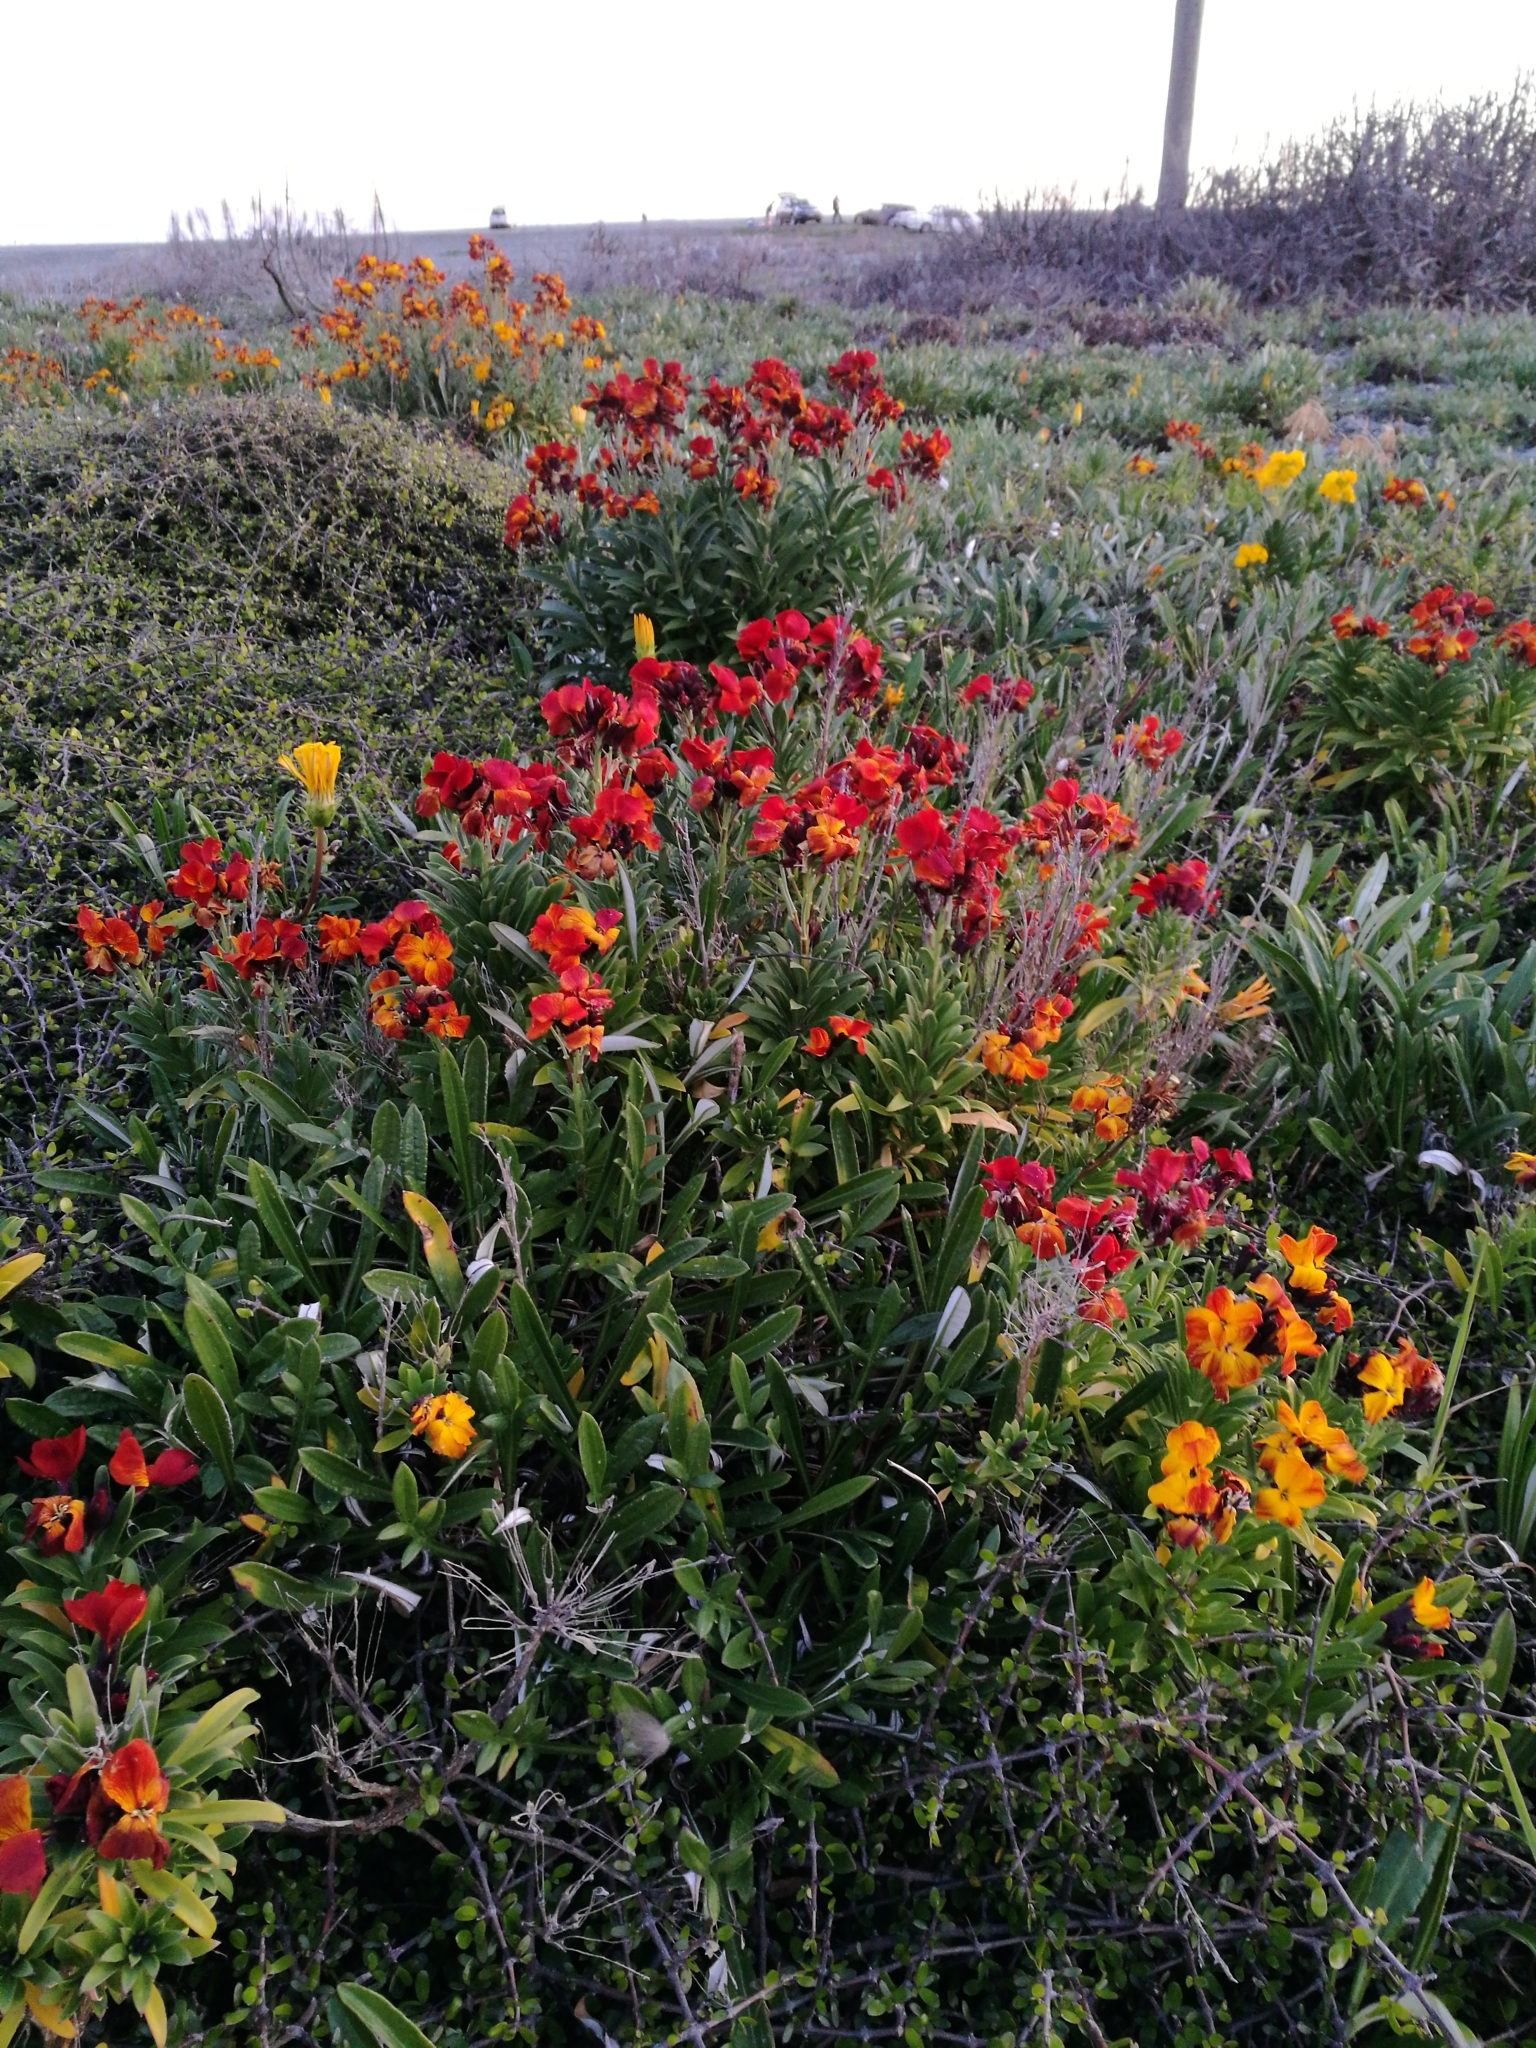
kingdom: Plantae
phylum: Tracheophyta
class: Magnoliopsida
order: Brassicales
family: Brassicaceae
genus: Erysimum
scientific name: Erysimum cheiri
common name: Wallflower
